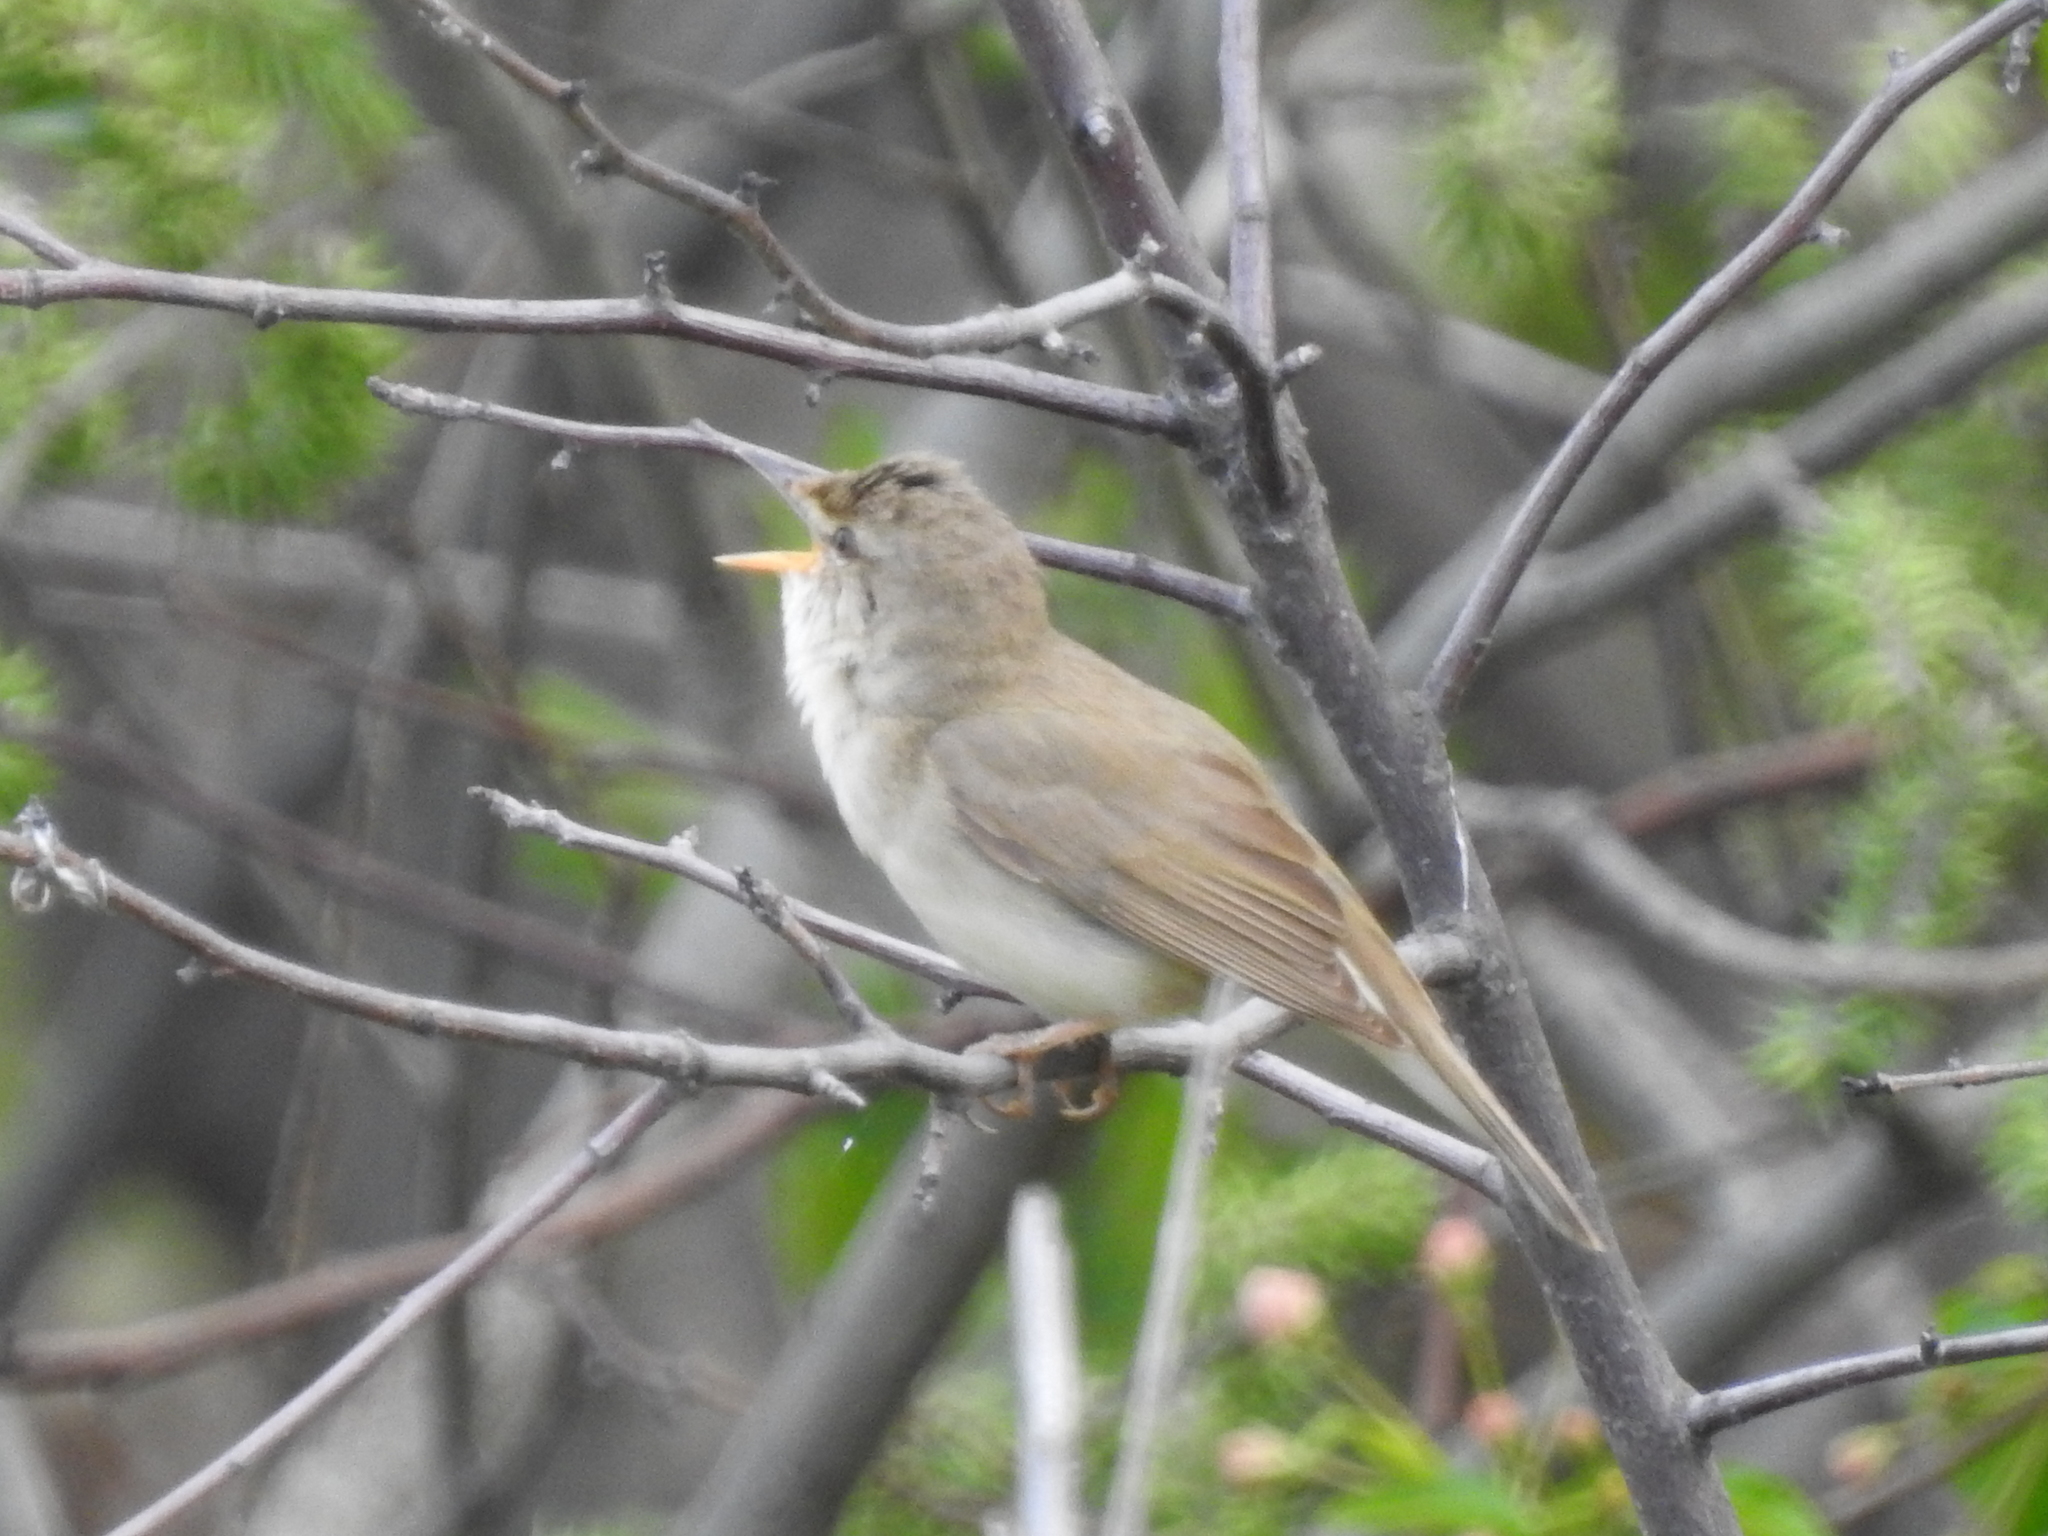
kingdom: Animalia
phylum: Chordata
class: Aves
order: Passeriformes
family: Acrocephalidae
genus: Acrocephalus
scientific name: Acrocephalus dumetorum
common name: Blyth's reed warbler
